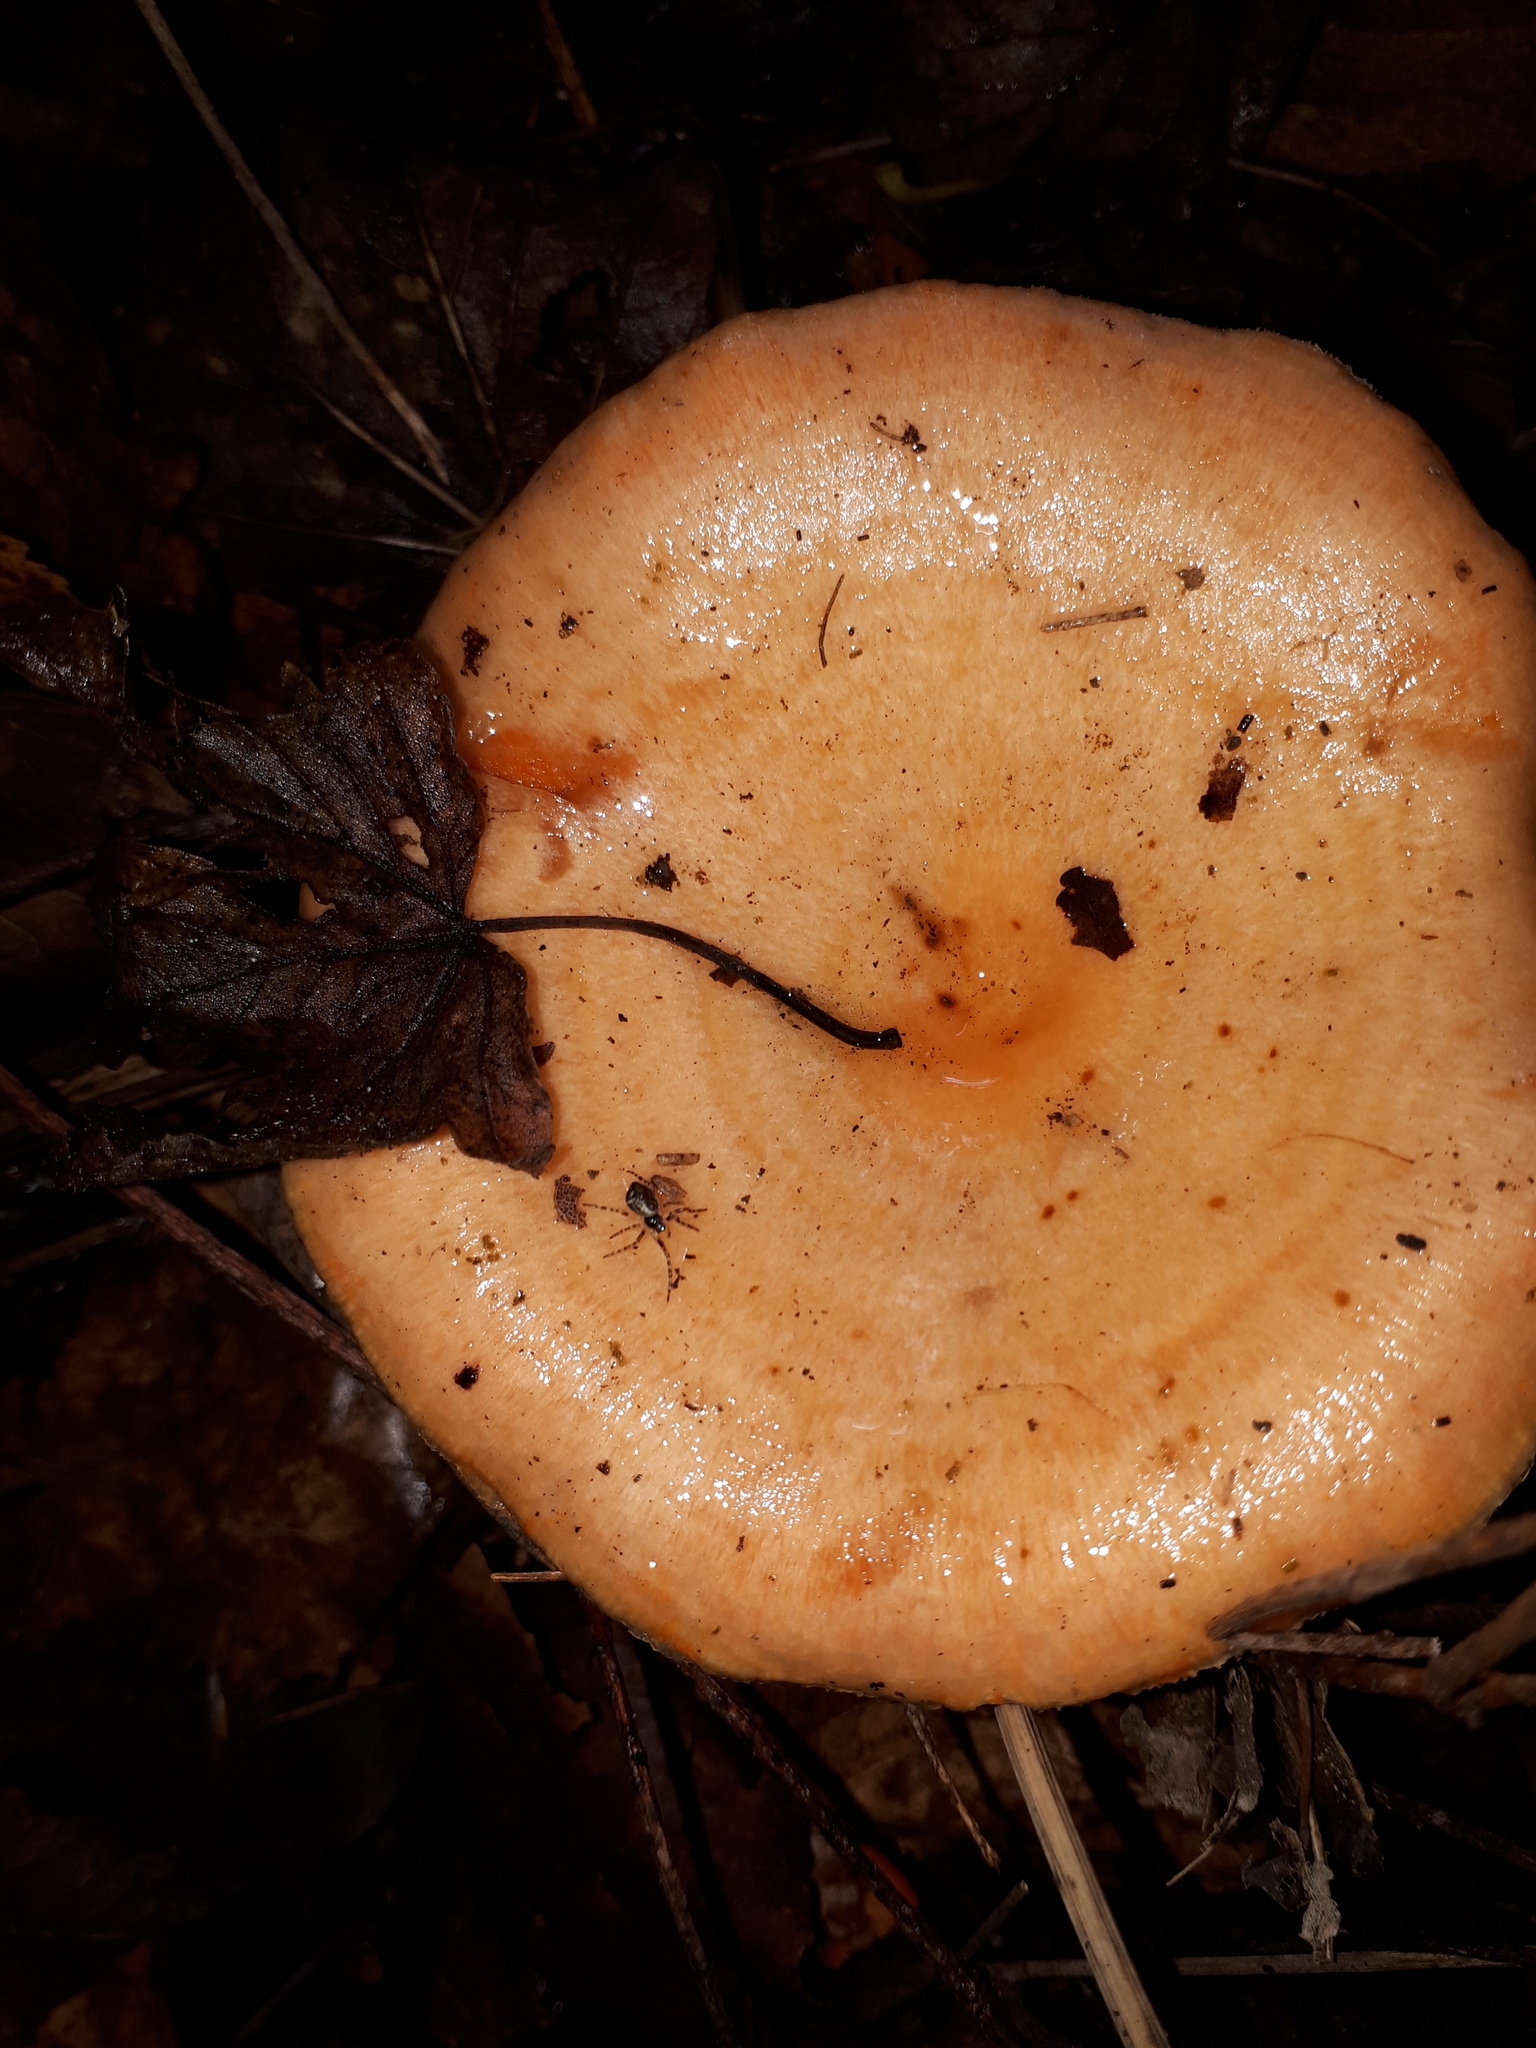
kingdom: Fungi
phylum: Basidiomycota
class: Agaricomycetes
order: Russulales
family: Russulaceae
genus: Lactarius
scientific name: Lactarius salmonicolor
